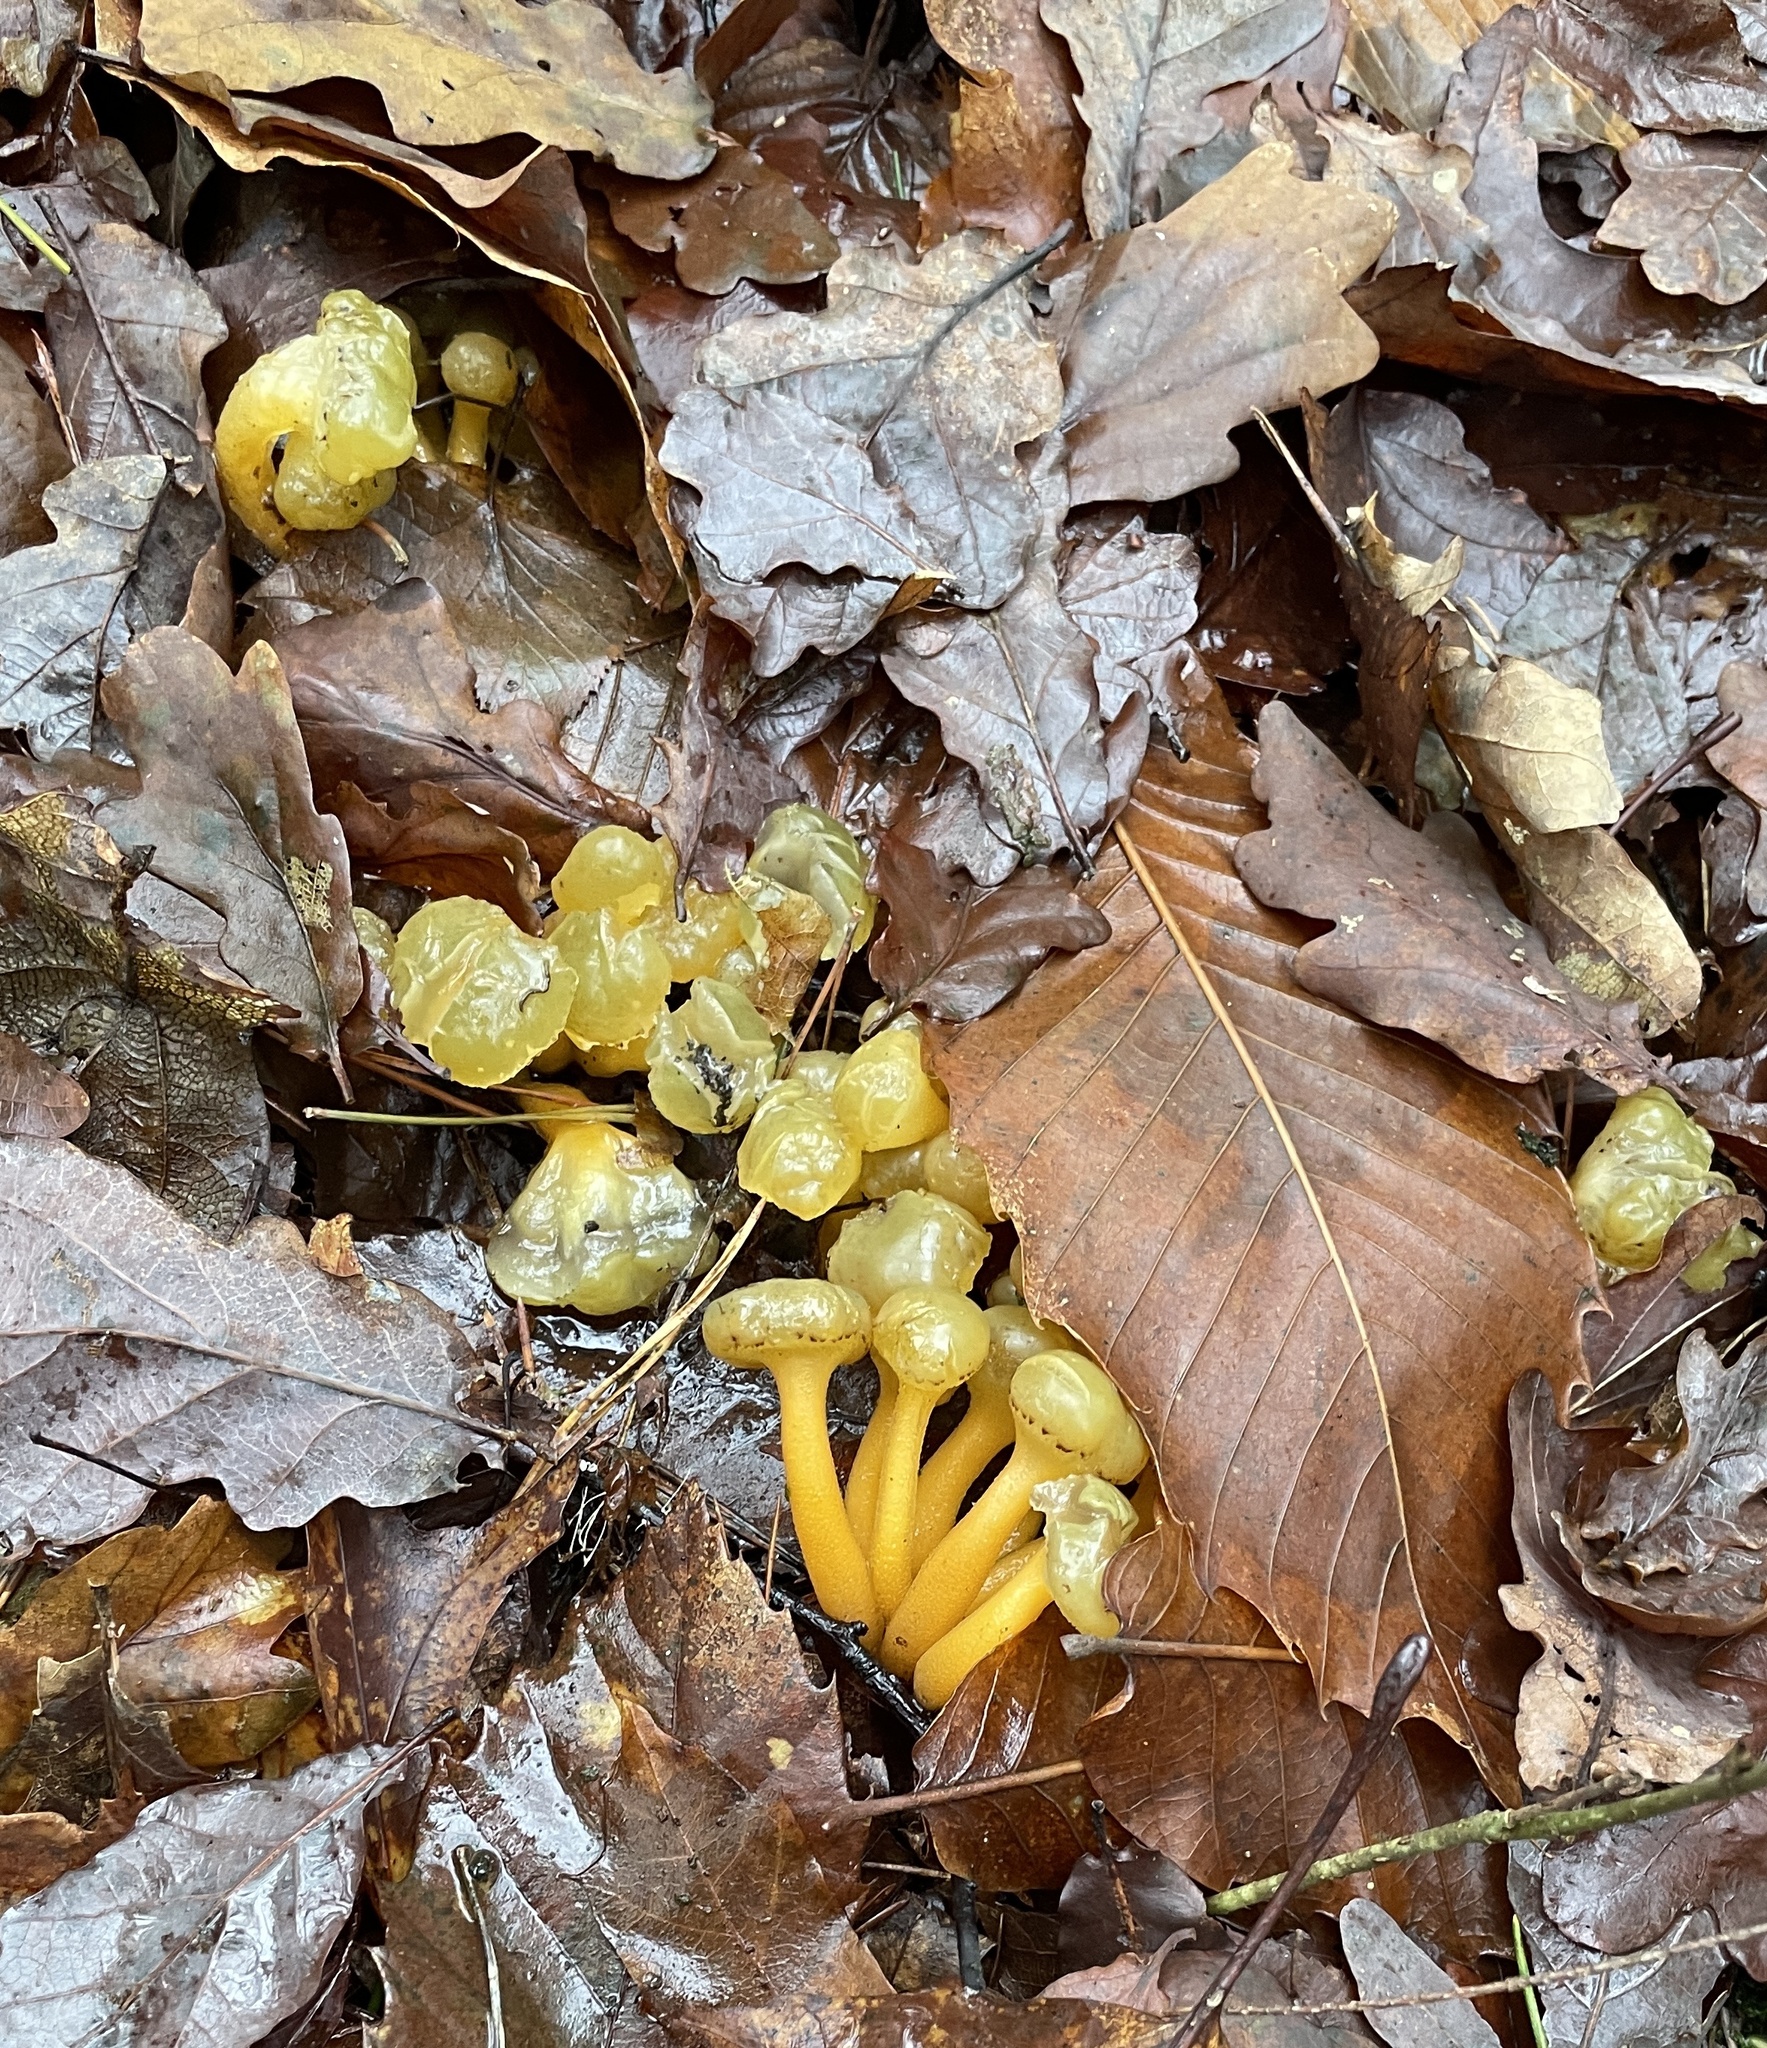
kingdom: Fungi
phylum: Ascomycota
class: Leotiomycetes
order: Leotiales
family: Leotiaceae
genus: Leotia
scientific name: Leotia lubrica
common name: Jellybaby
